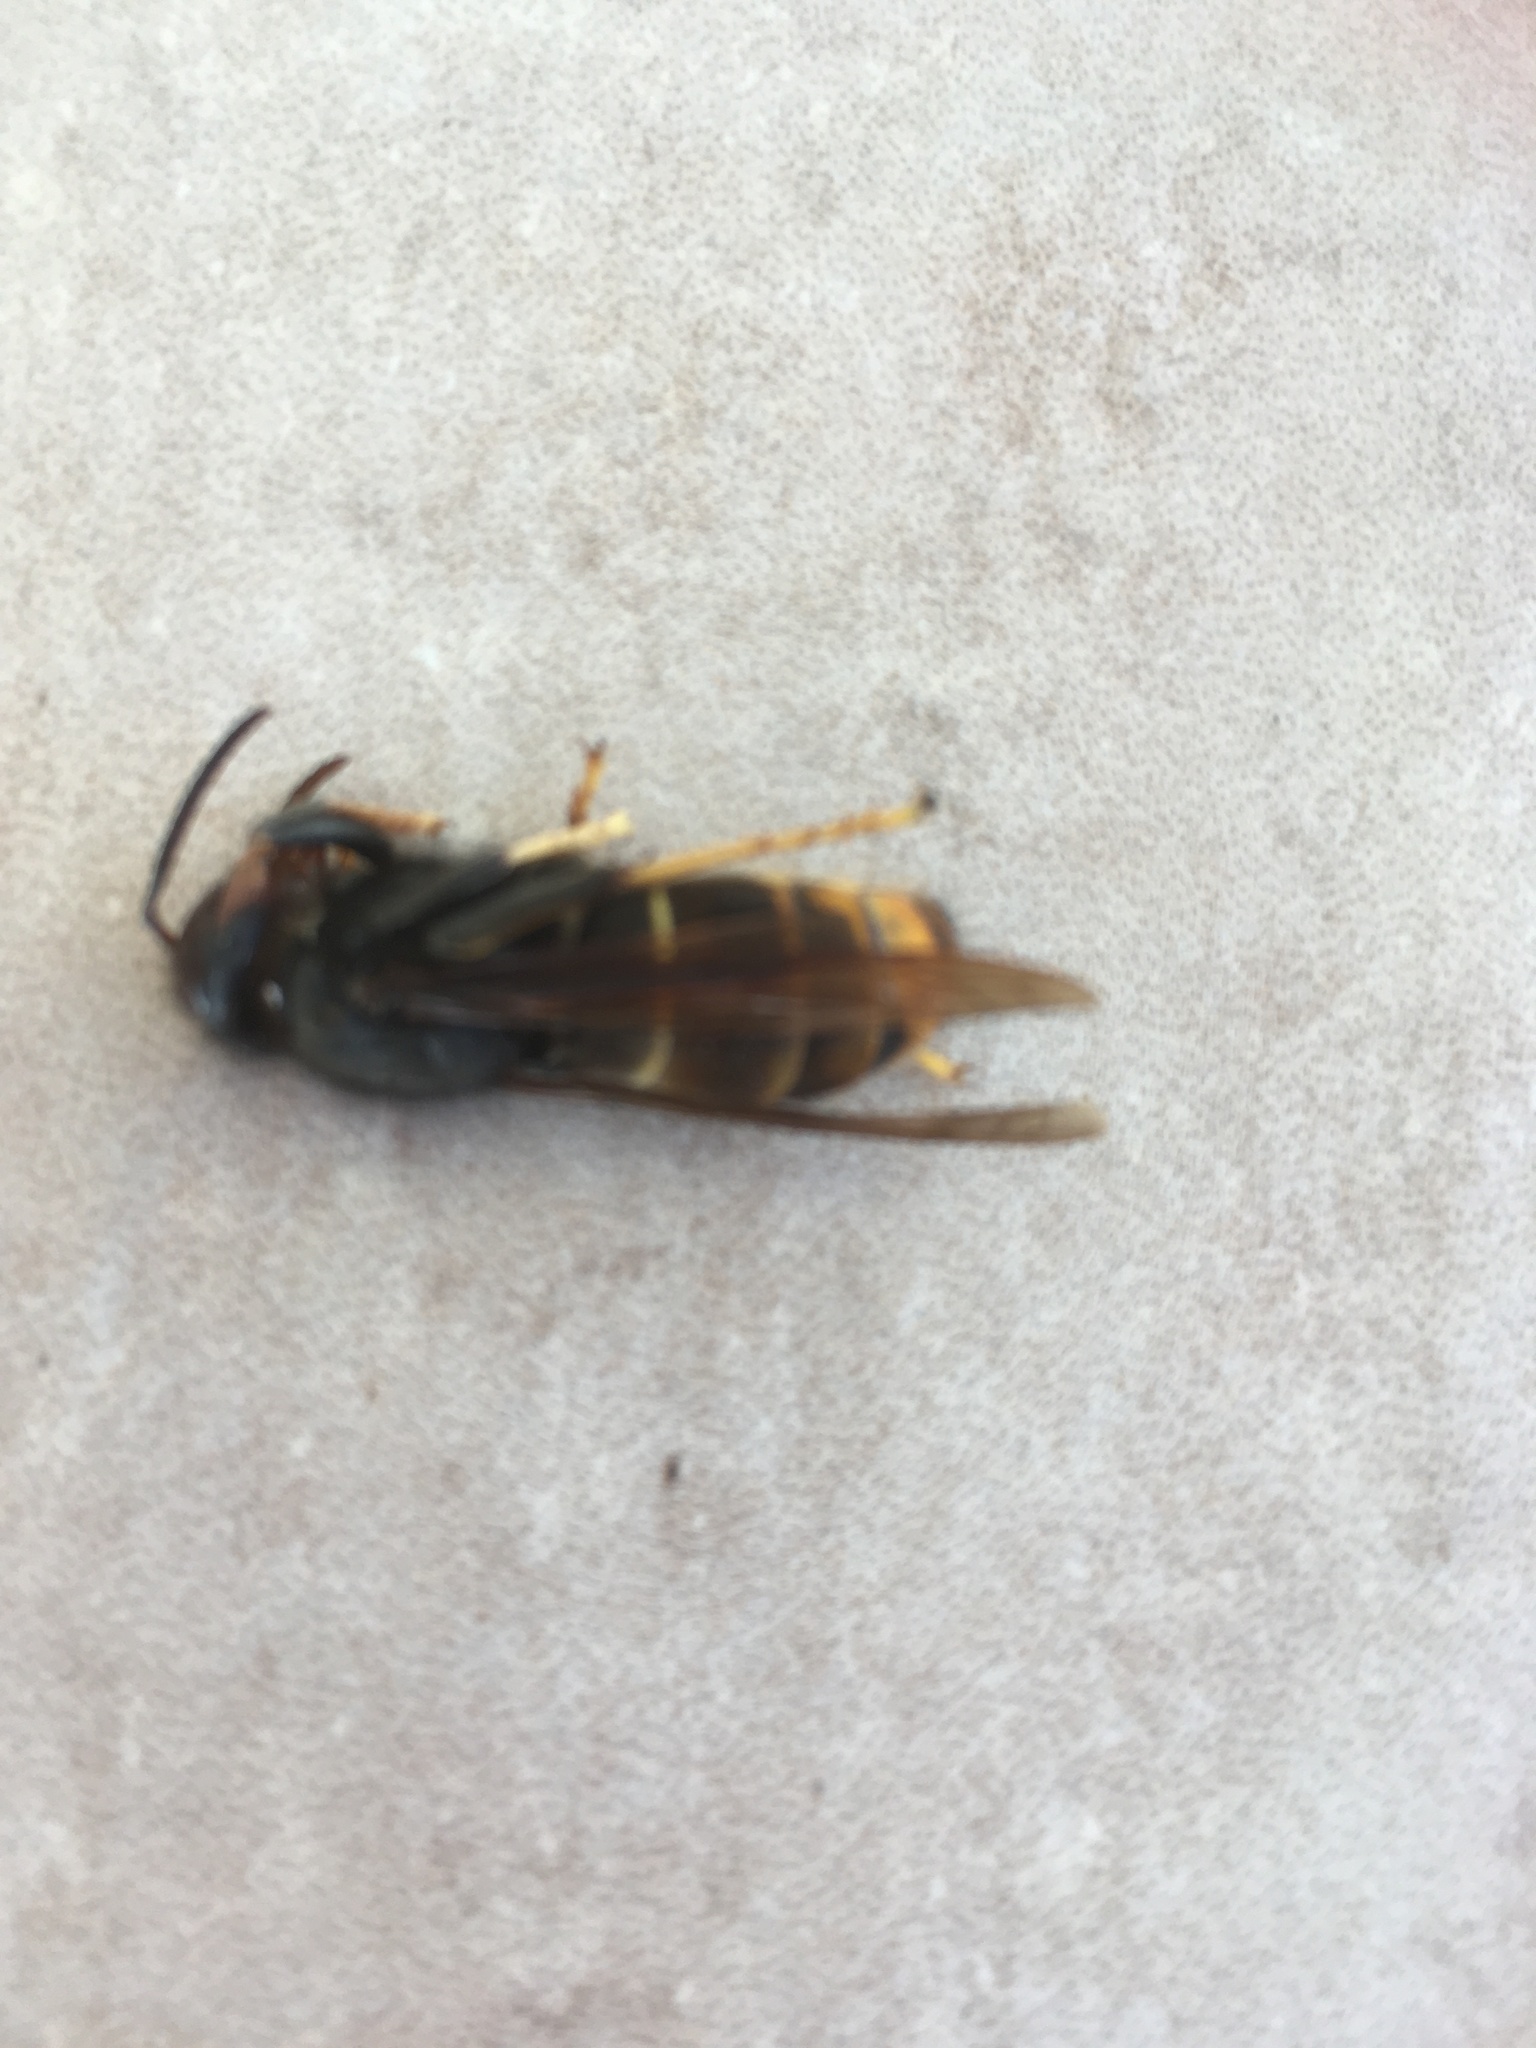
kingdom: Animalia
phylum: Arthropoda
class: Insecta
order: Hymenoptera
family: Vespidae
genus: Vespa
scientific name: Vespa velutina
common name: Asian hornet
